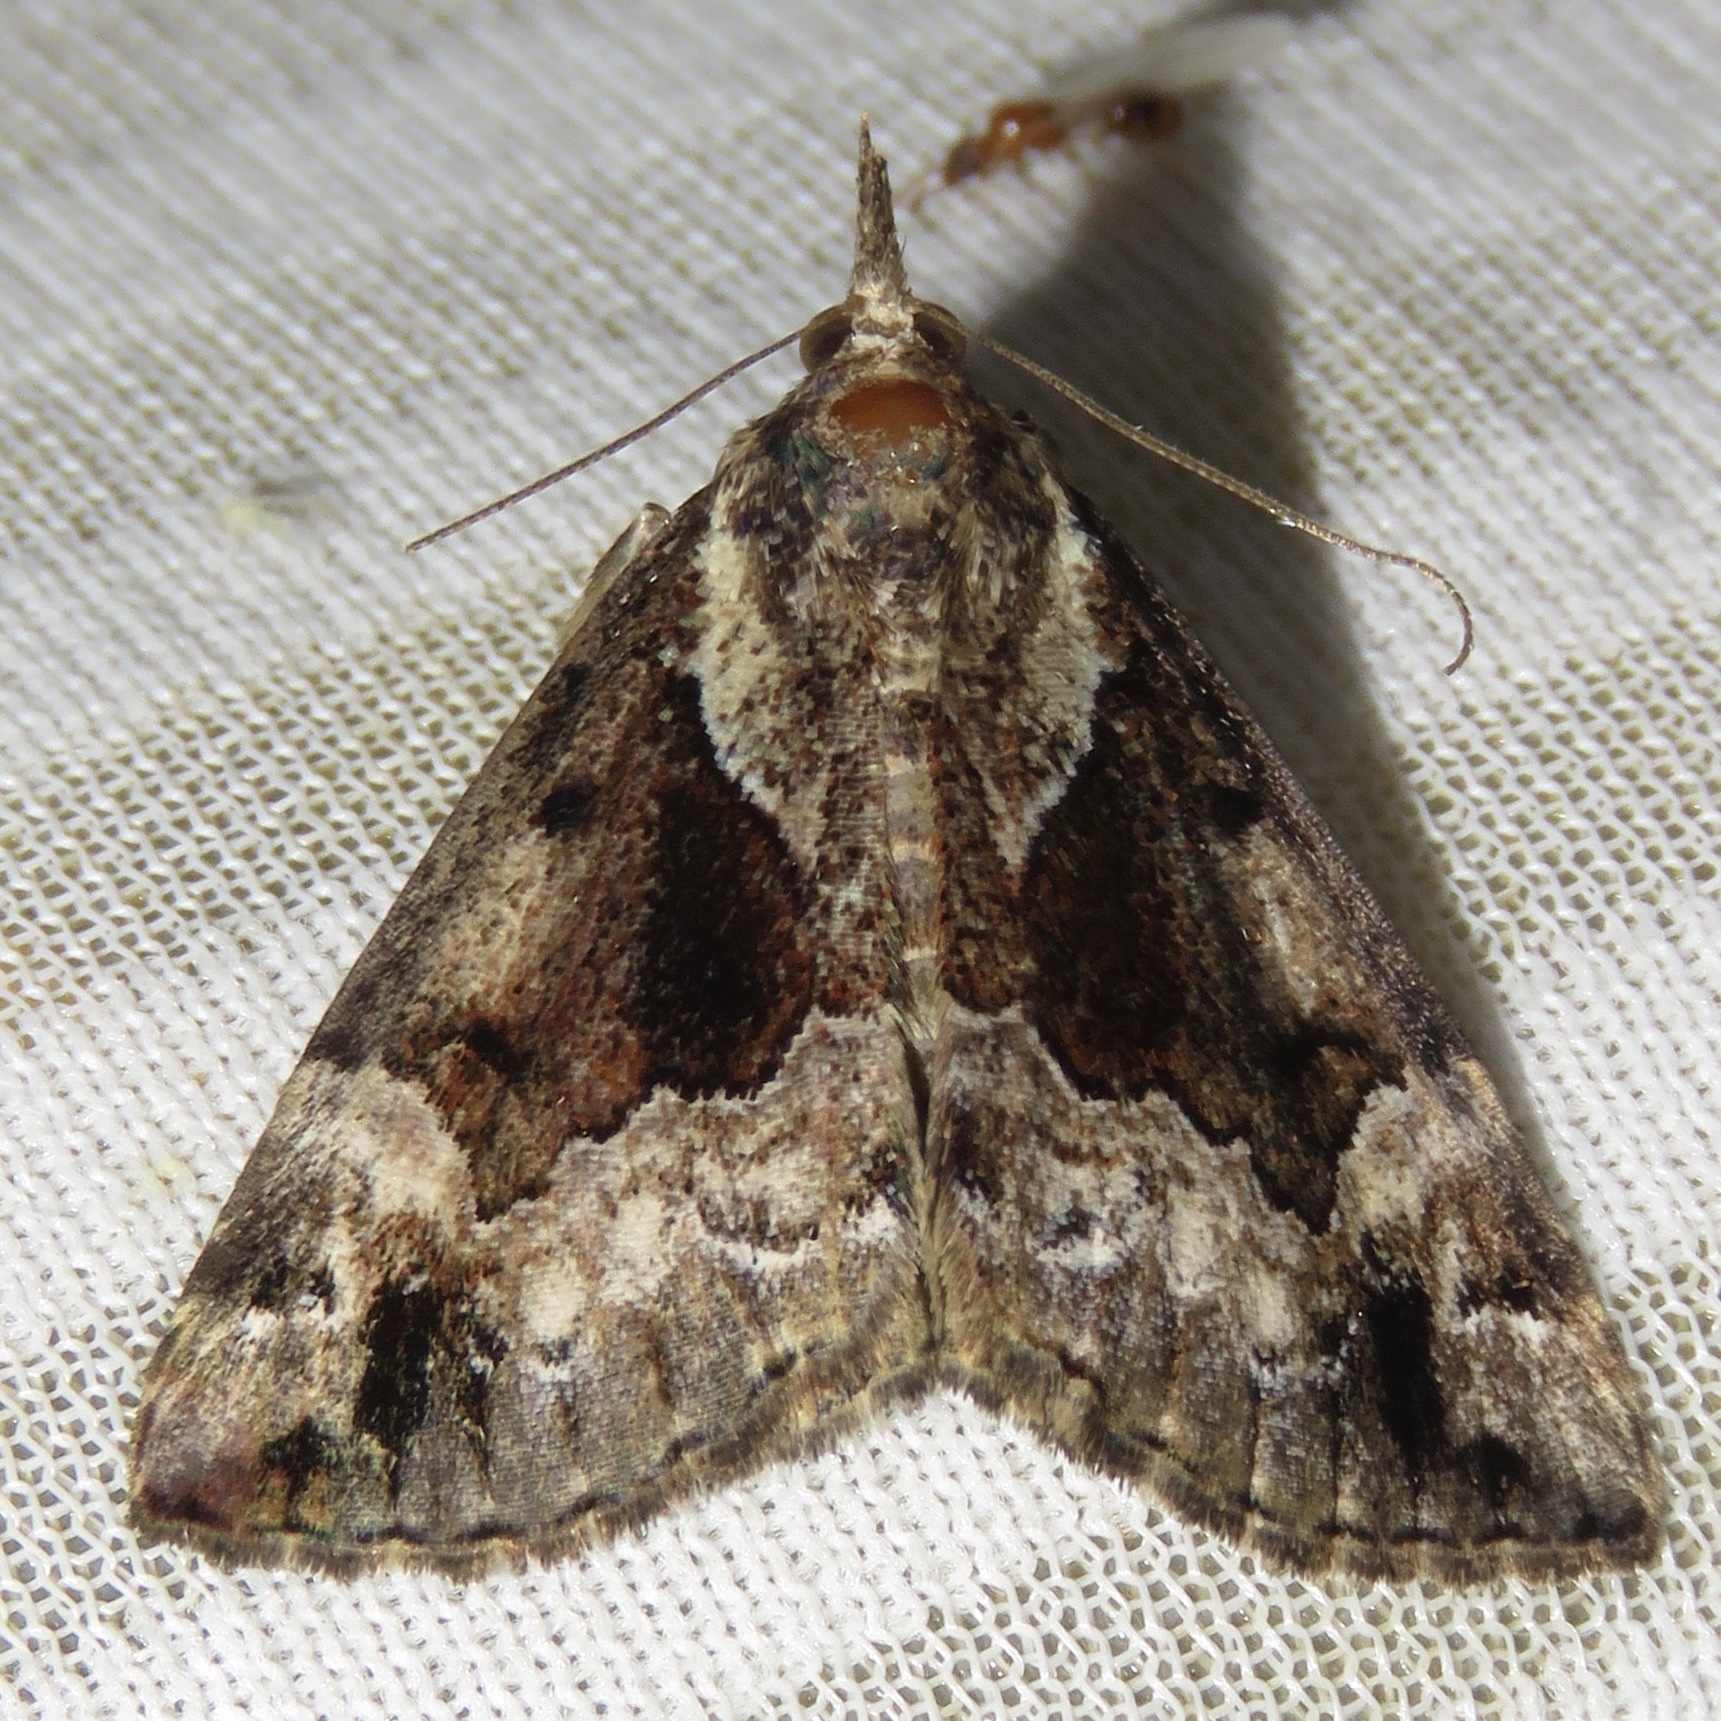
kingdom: Animalia
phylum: Arthropoda
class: Insecta
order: Lepidoptera
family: Erebidae
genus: Hypena
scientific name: Hypena palparia
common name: Mottled bomolocha moth
